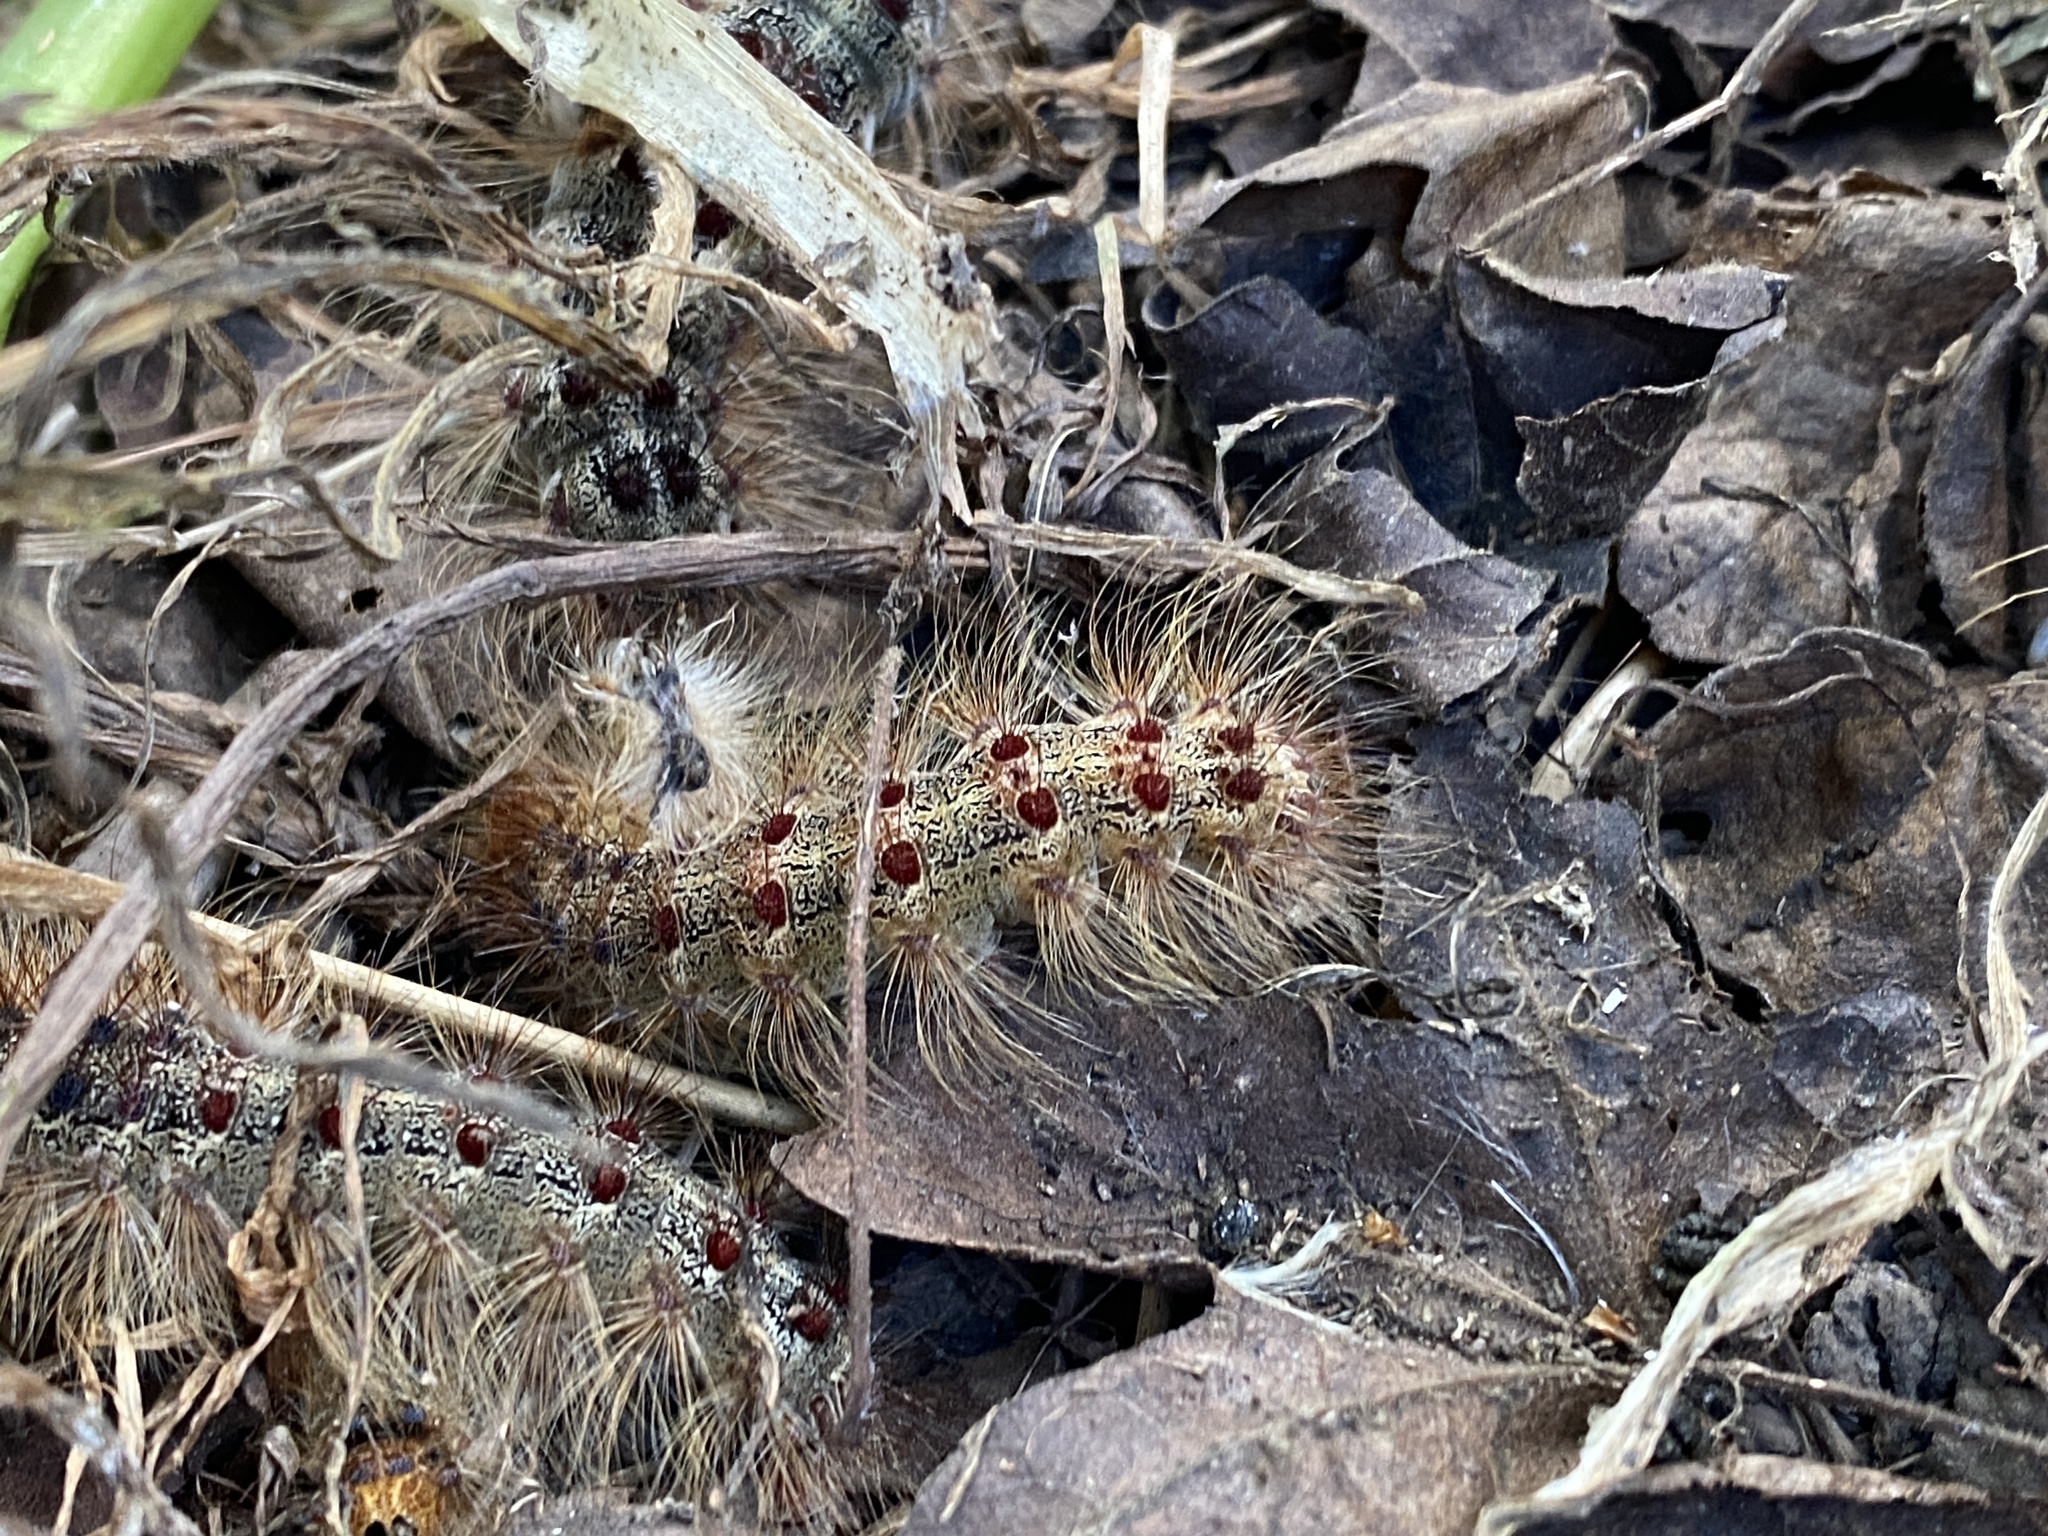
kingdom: Animalia
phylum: Arthropoda
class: Insecta
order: Lepidoptera
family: Erebidae
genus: Lymantria
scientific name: Lymantria dispar
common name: Gypsy moth
